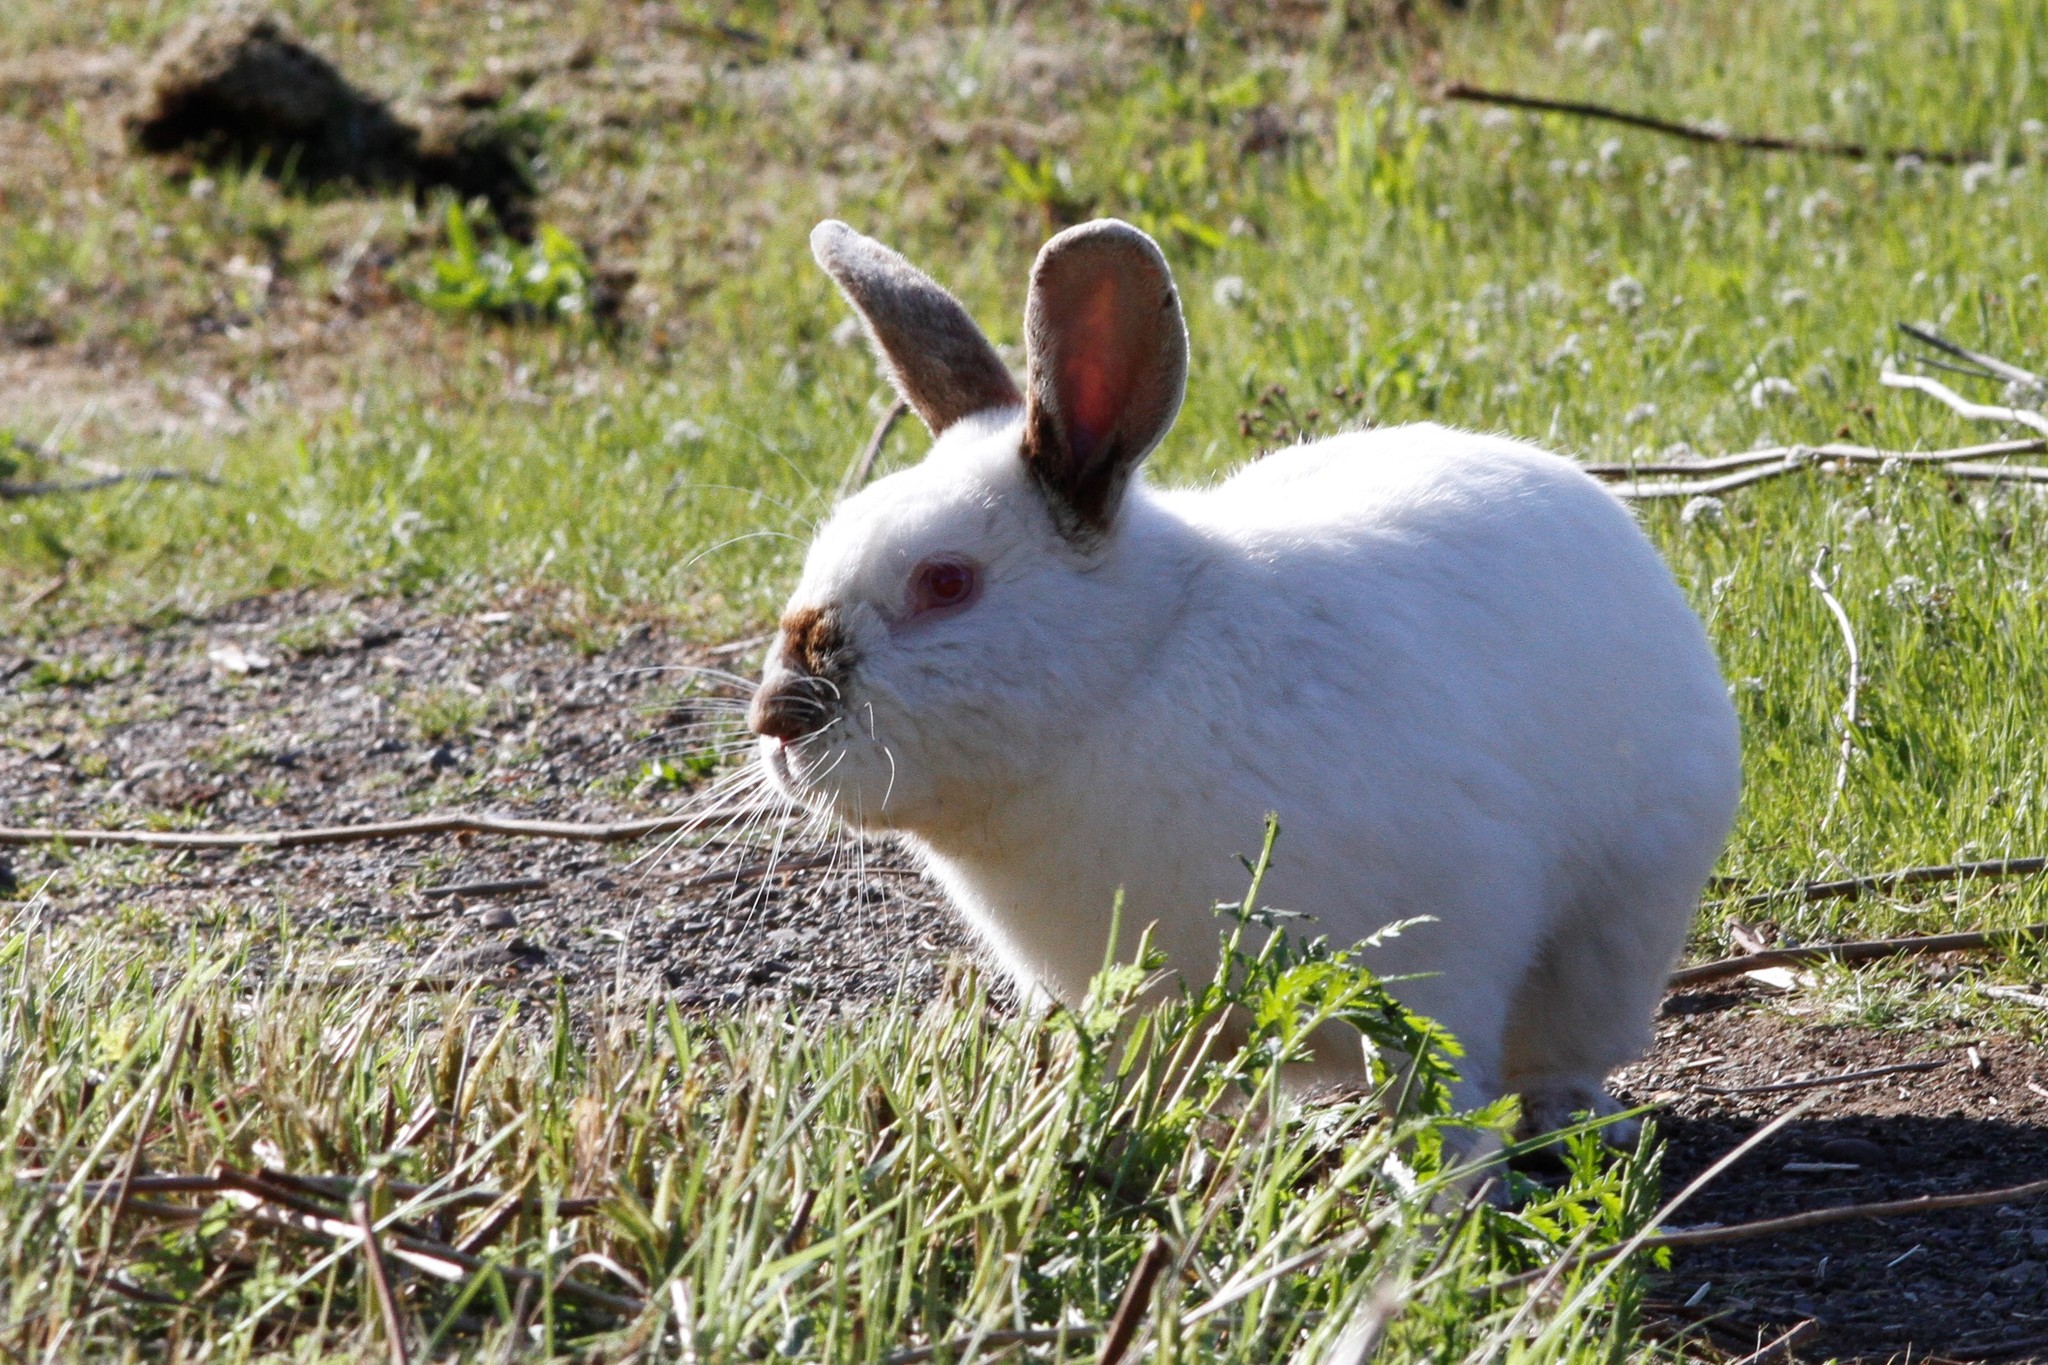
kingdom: Animalia
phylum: Chordata
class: Mammalia
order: Lagomorpha
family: Leporidae
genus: Oryctolagus
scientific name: Oryctolagus cuniculus
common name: European rabbit
